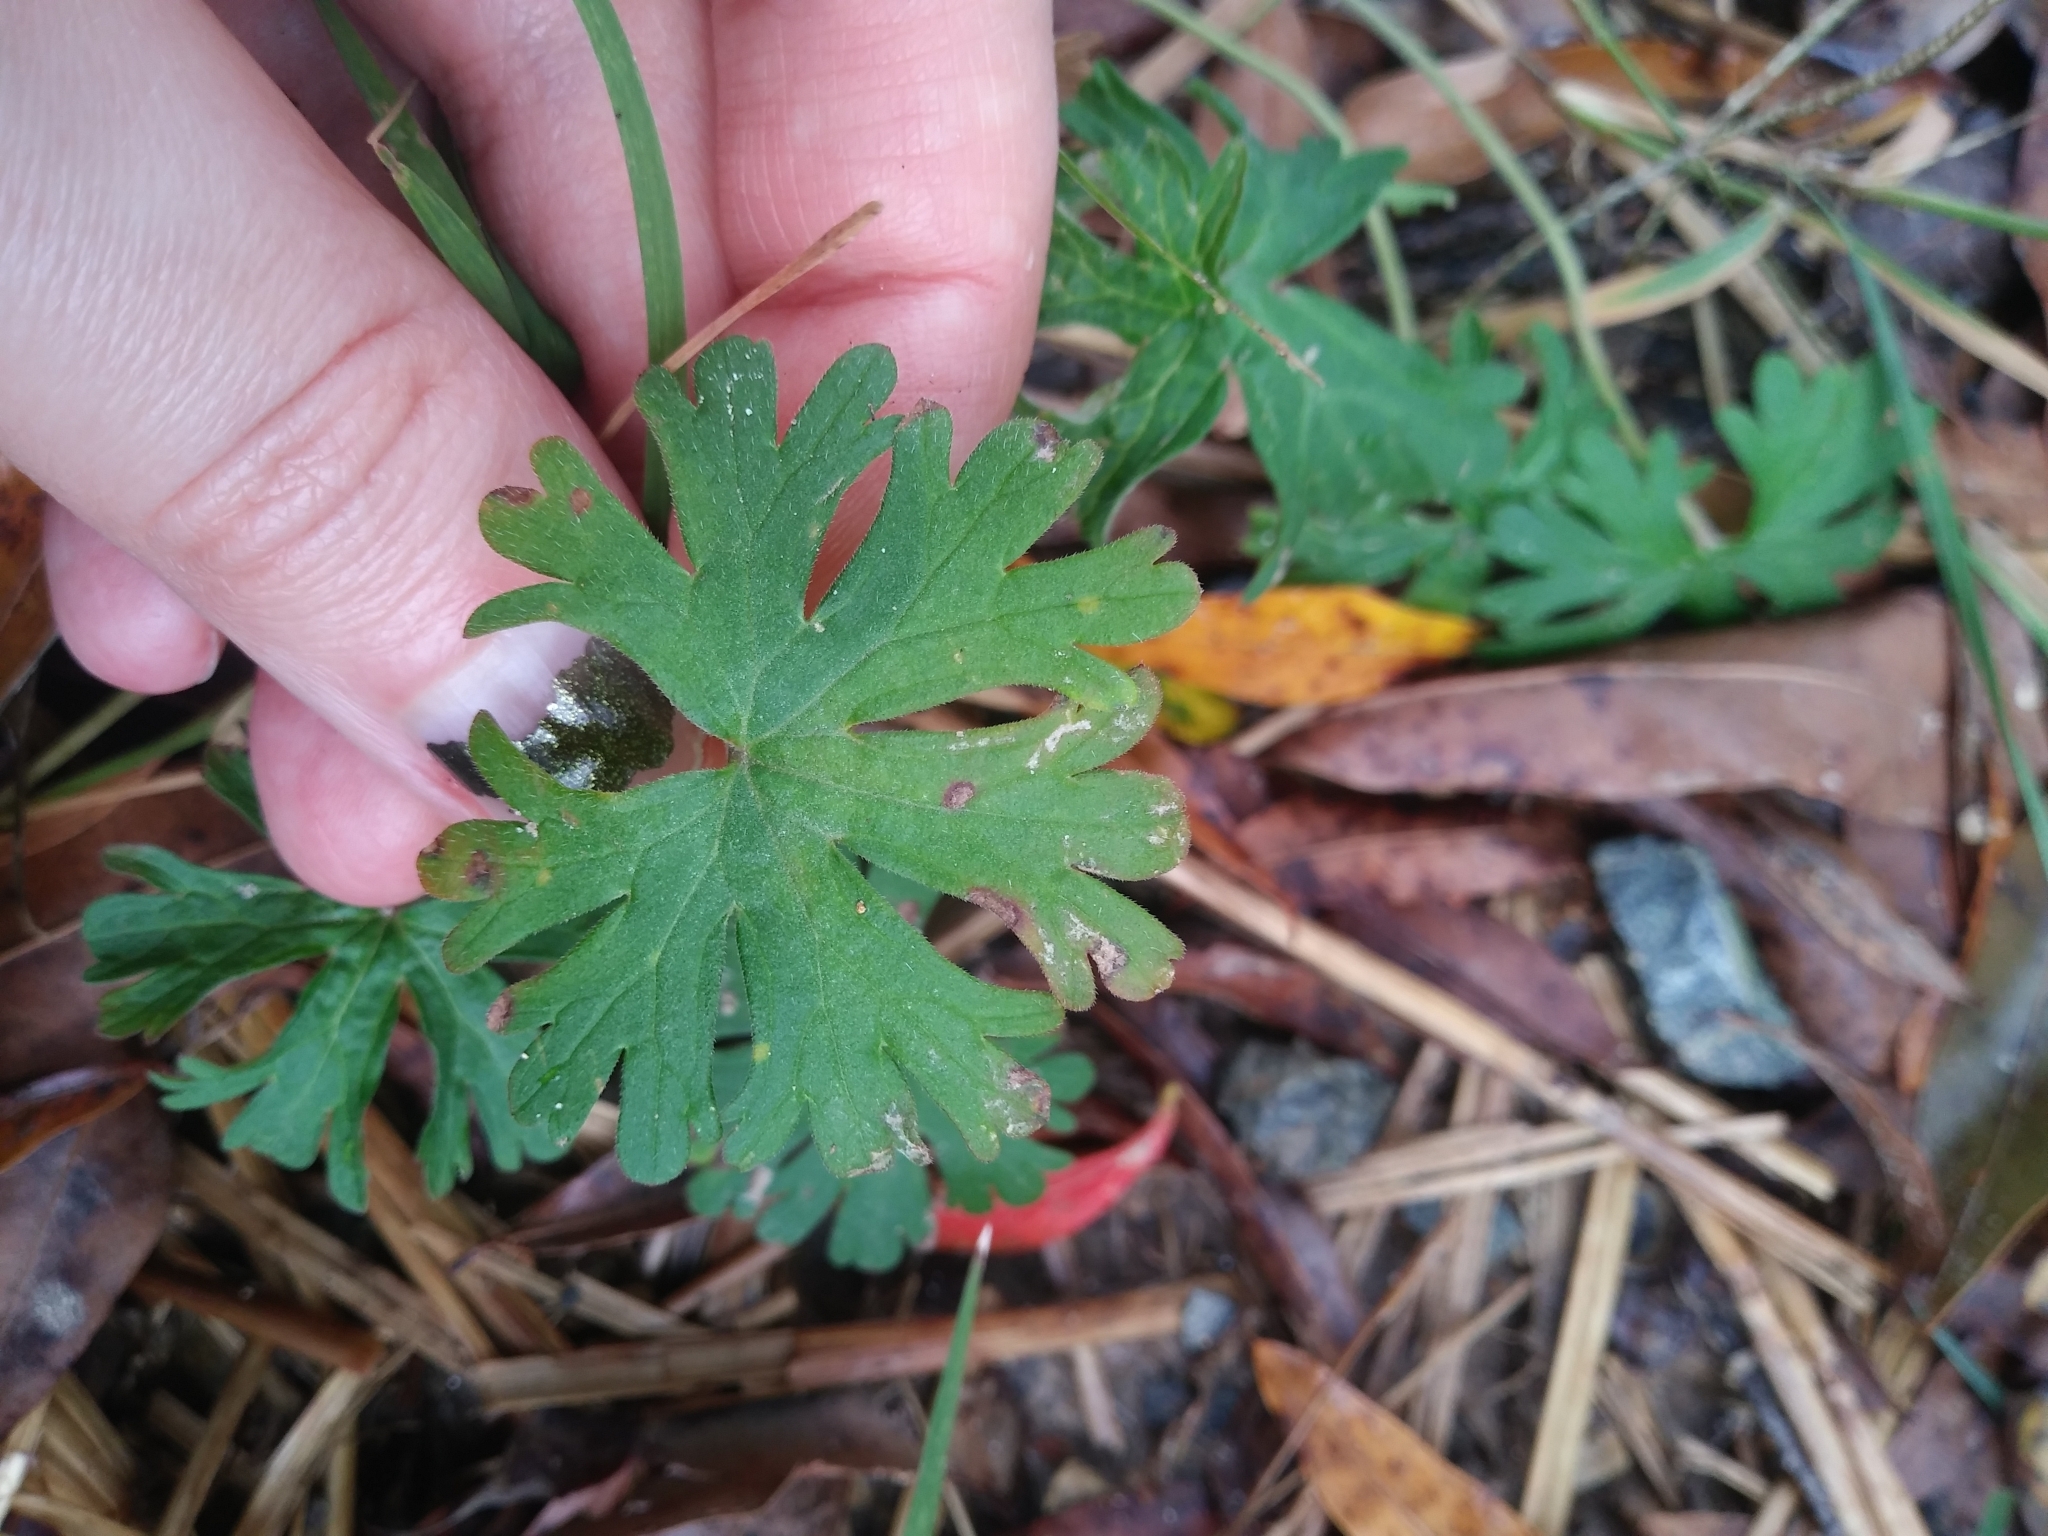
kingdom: Plantae
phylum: Tracheophyta
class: Magnoliopsida
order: Geraniales
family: Geraniaceae
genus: Geranium
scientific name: Geranium carolinianum
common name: Carolina crane's-bill
